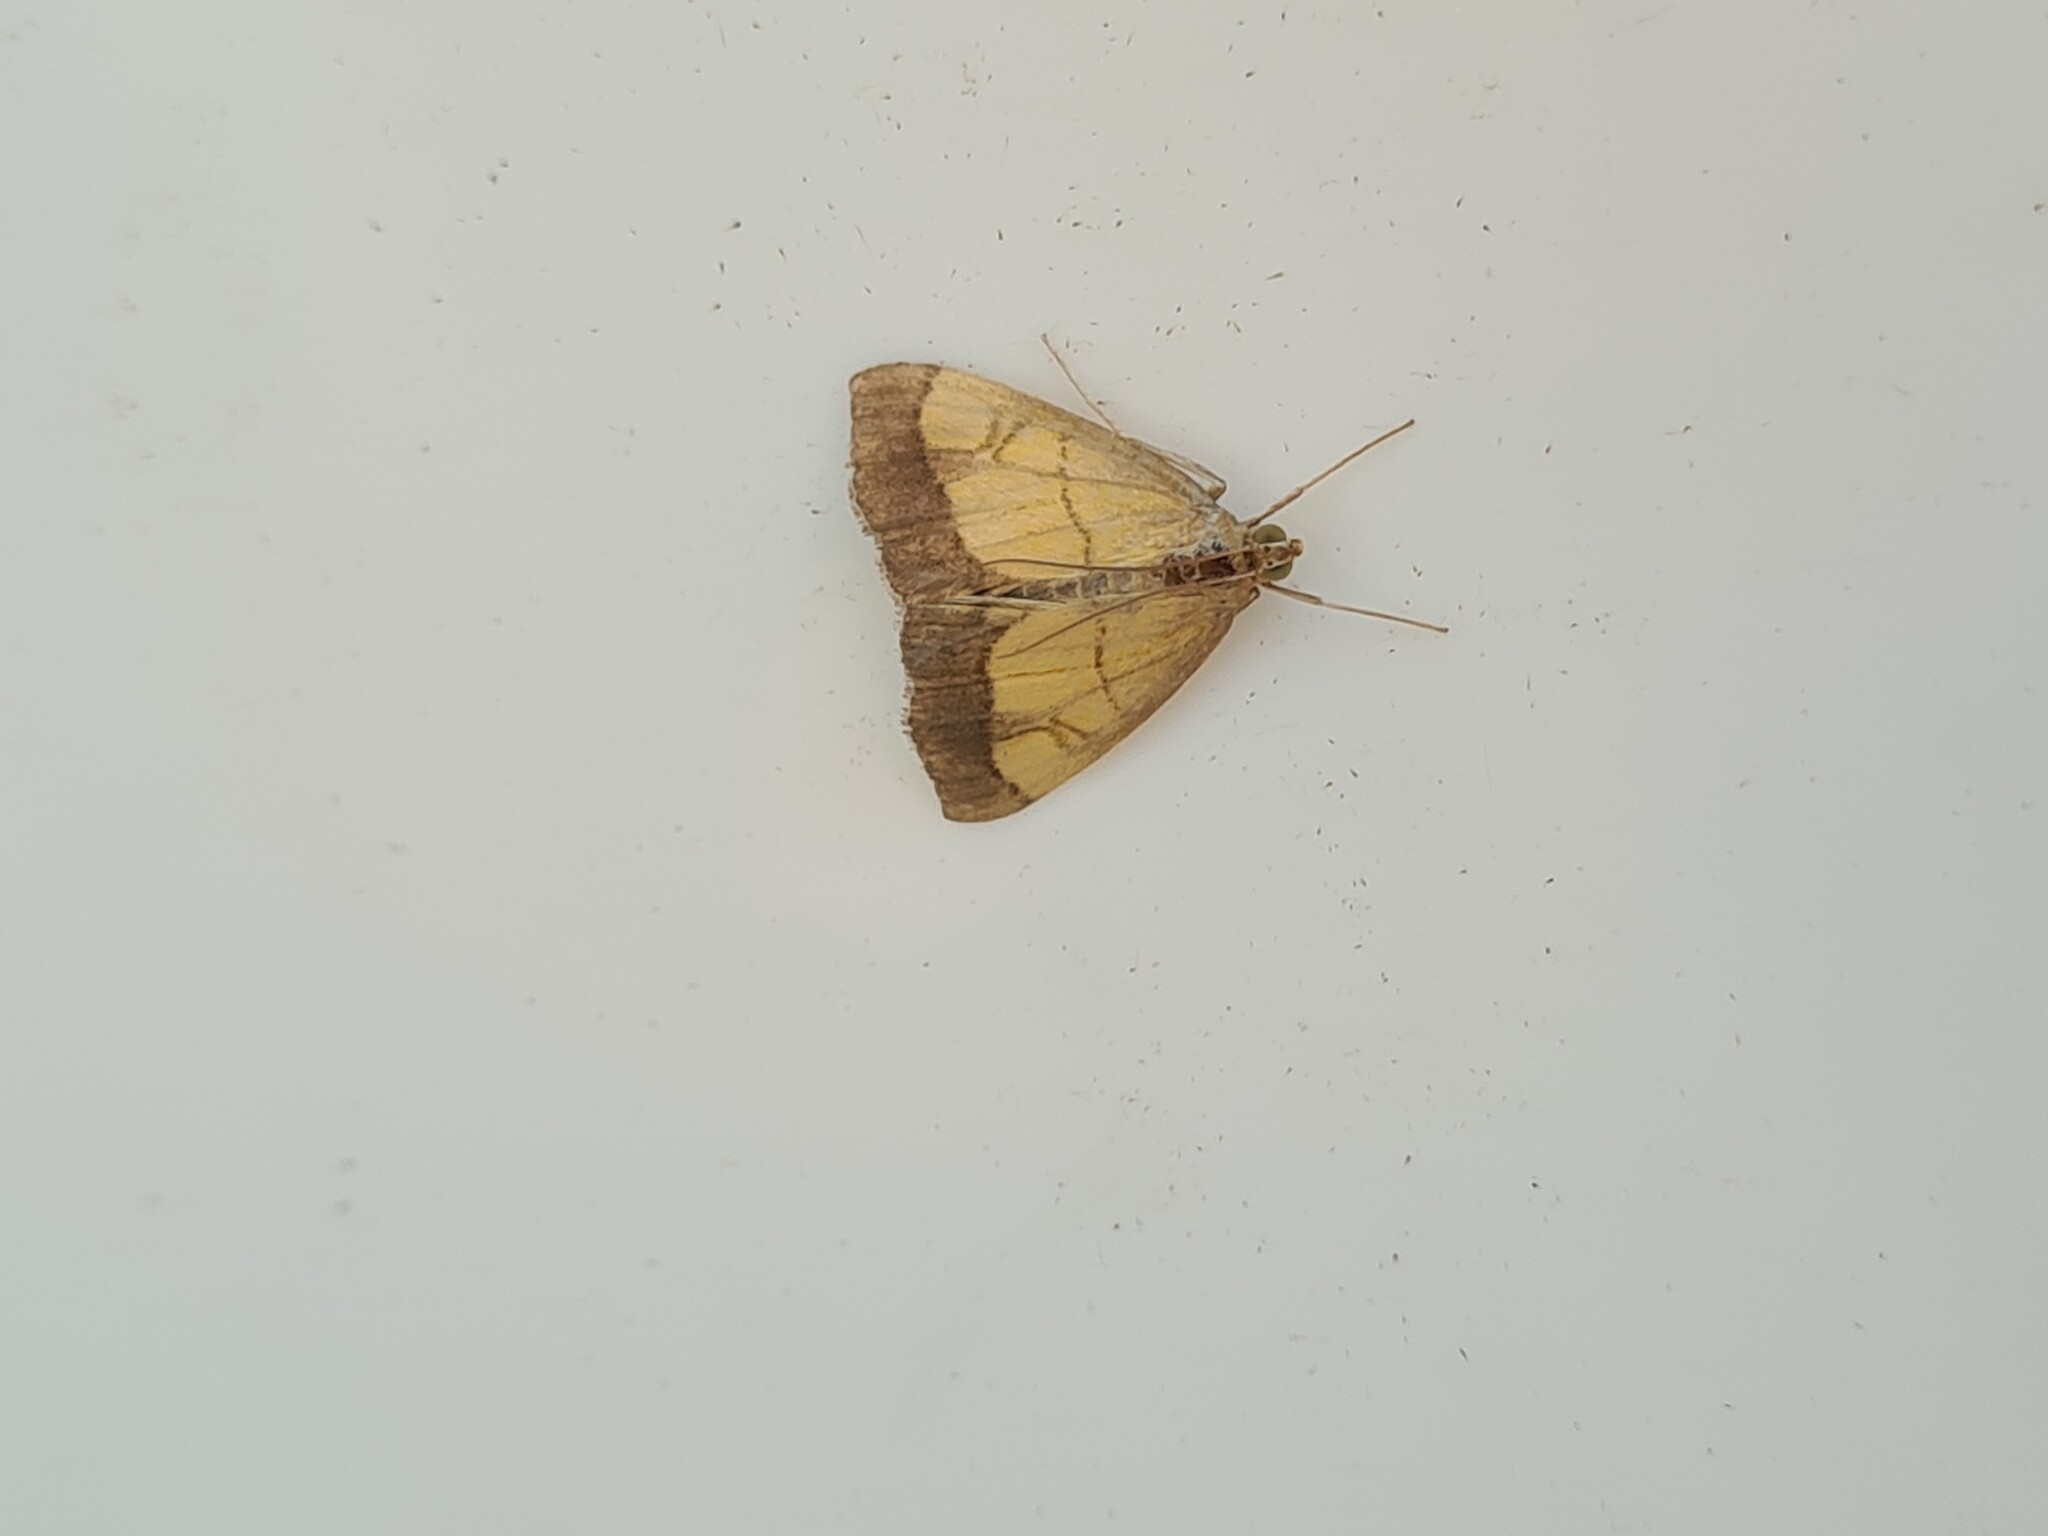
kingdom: Animalia
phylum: Arthropoda
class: Insecta
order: Lepidoptera
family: Crambidae
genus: Evergestis
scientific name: Evergestis limbata
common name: Dark bordered pearl
